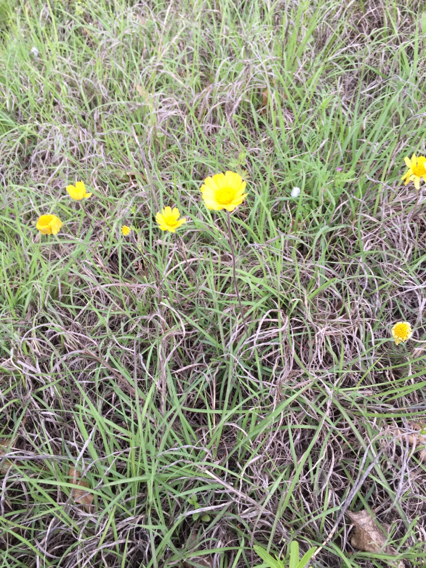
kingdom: Plantae
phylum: Tracheophyta
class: Magnoliopsida
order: Asterales
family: Asteraceae
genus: Tetraneuris
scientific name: Tetraneuris scaposa
